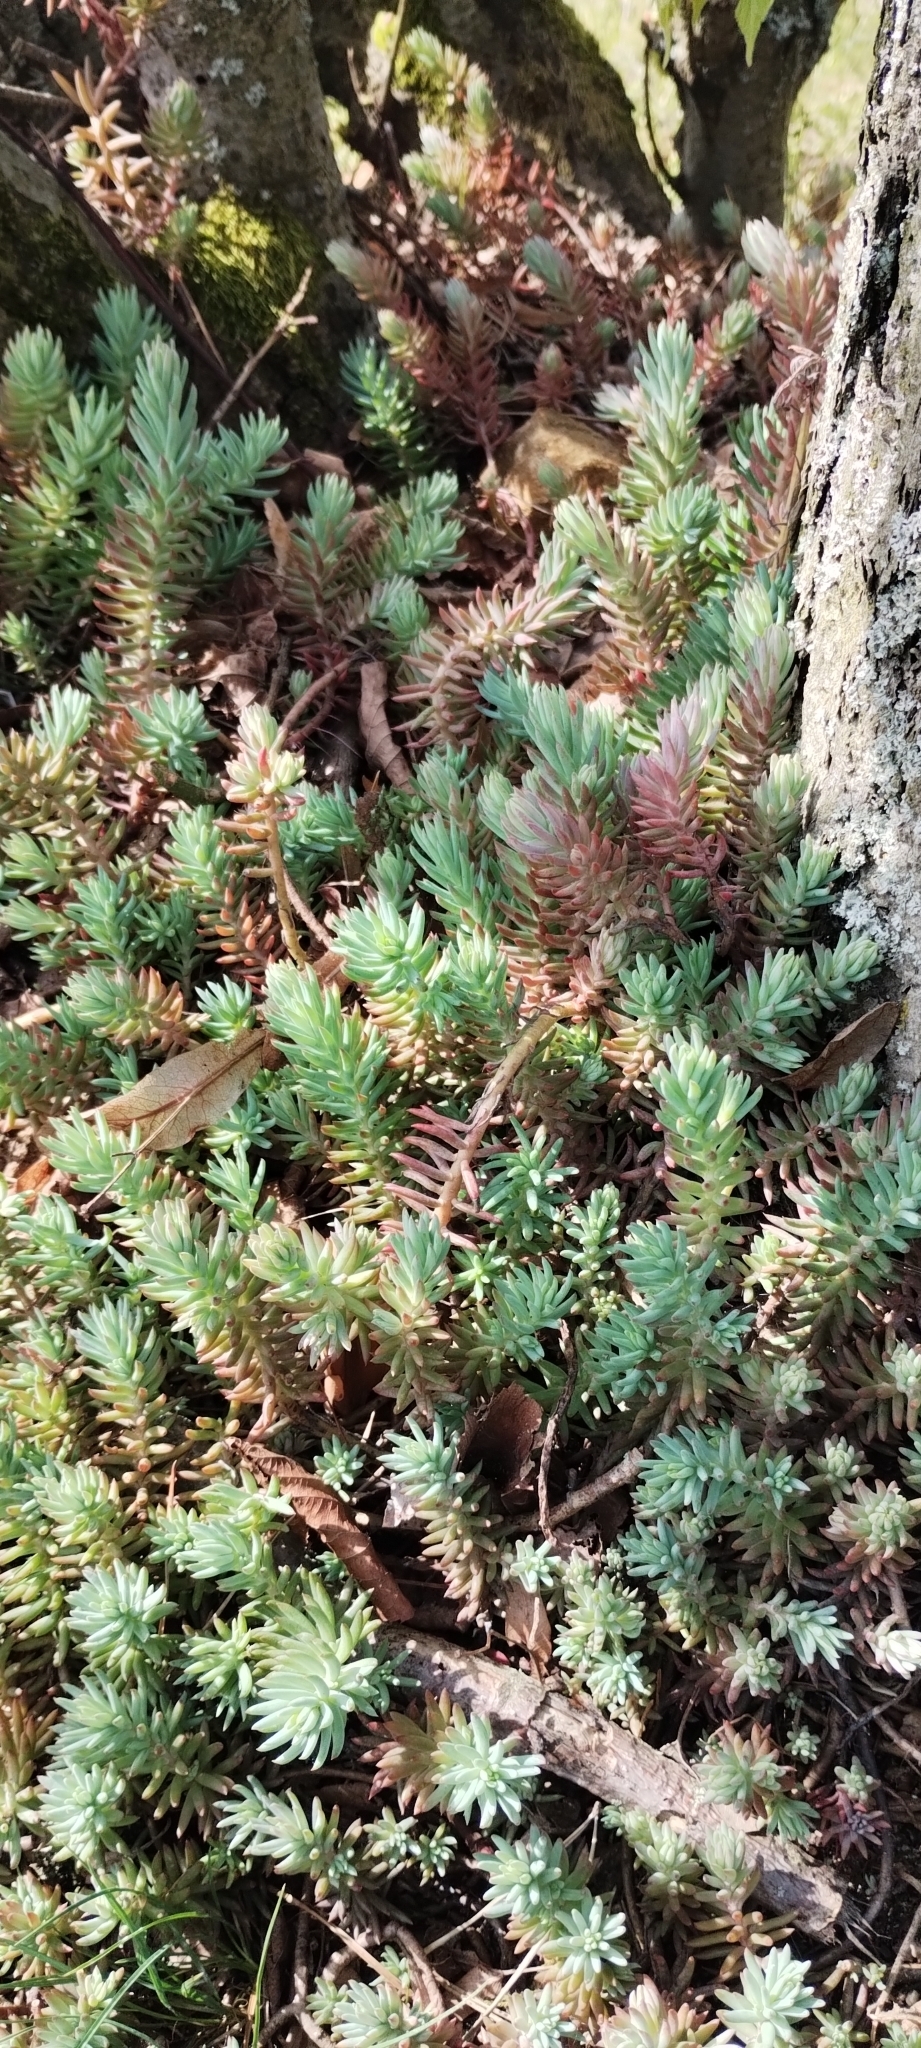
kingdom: Plantae
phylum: Tracheophyta
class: Magnoliopsida
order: Saxifragales
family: Crassulaceae
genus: Petrosedum
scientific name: Petrosedum rupestre
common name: Jenny's stonecrop
